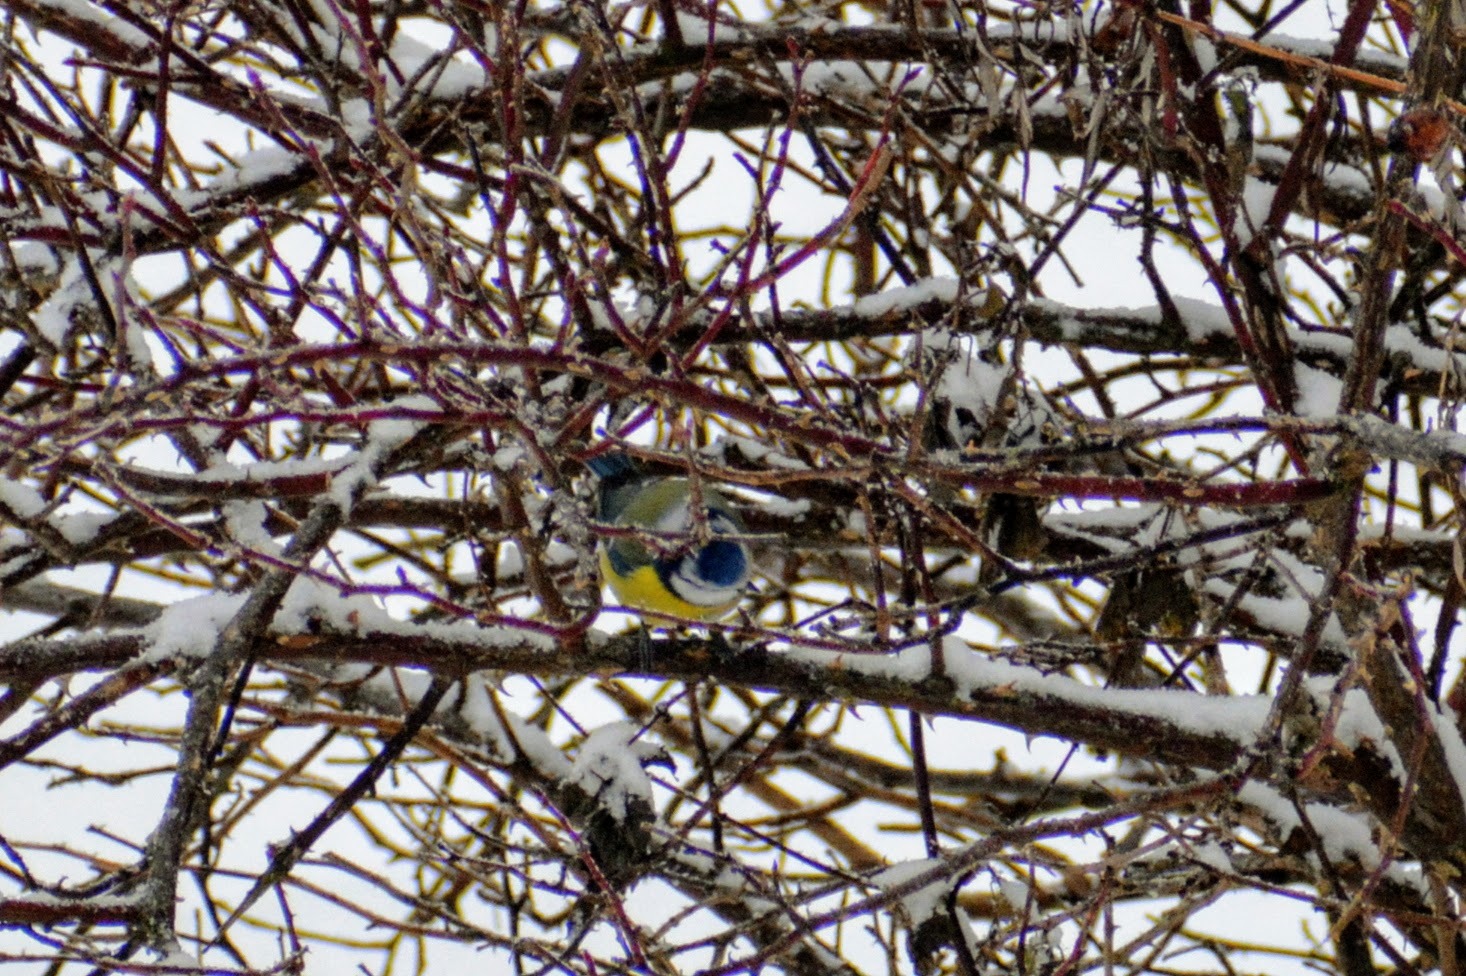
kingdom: Animalia
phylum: Chordata
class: Aves
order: Passeriformes
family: Paridae
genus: Cyanistes
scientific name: Cyanistes caeruleus
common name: Eurasian blue tit
